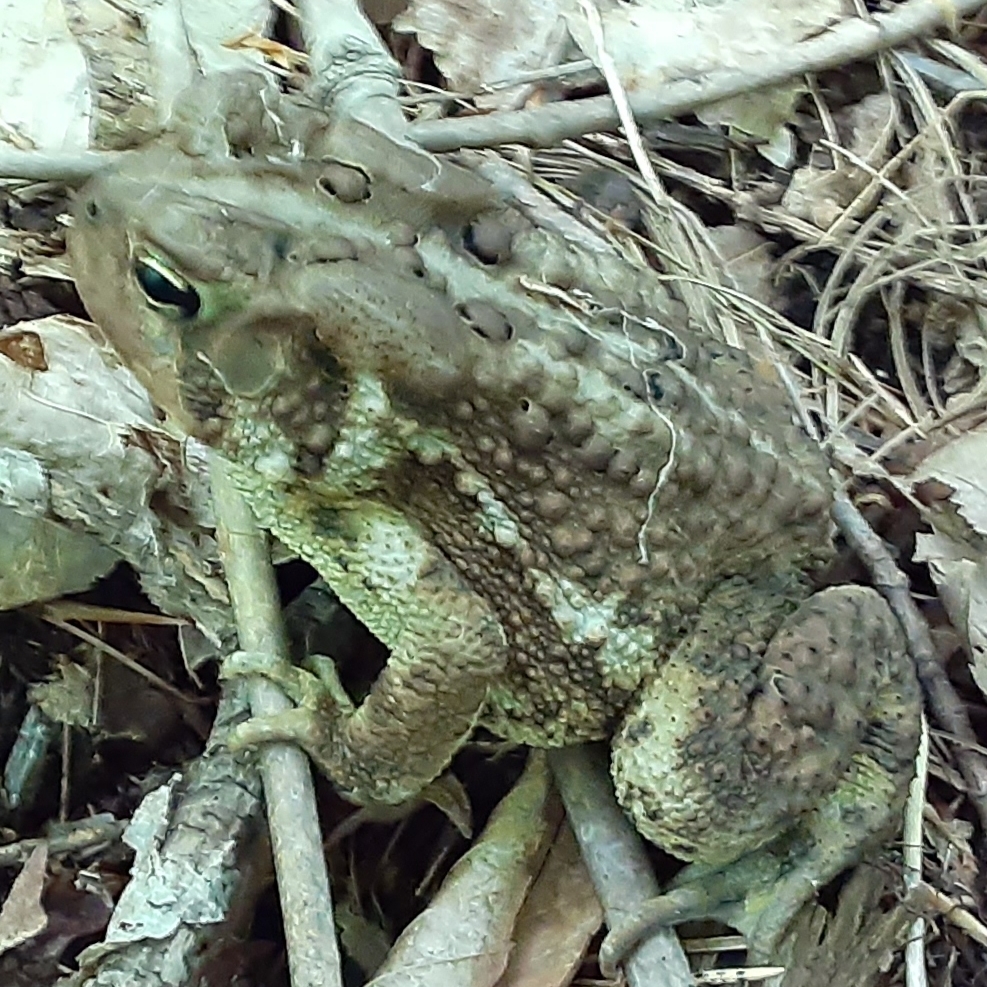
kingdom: Animalia
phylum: Chordata
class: Amphibia
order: Anura
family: Bufonidae
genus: Anaxyrus
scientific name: Anaxyrus americanus
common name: American toad
